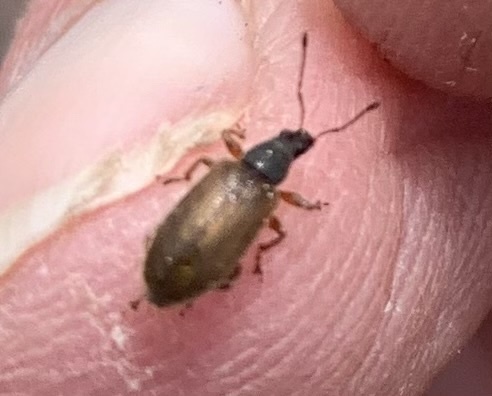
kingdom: Animalia
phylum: Arthropoda
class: Insecta
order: Coleoptera
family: Curculionidae
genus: Phyllobius
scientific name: Phyllobius oblongus
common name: Brown leaf weevil
